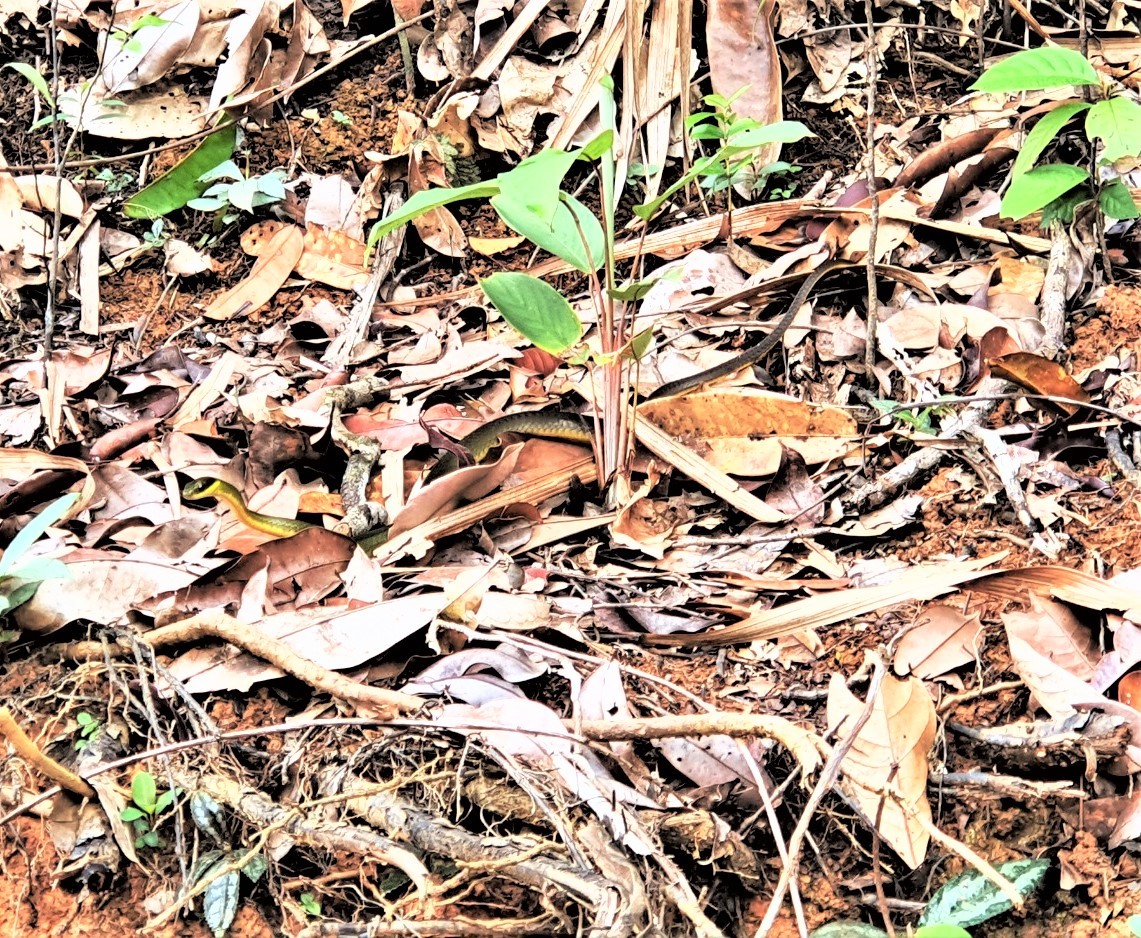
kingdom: Animalia
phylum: Chordata
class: Squamata
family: Colubridae
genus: Drymoluber
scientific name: Drymoluber dichrous
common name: Northern woodland racer
